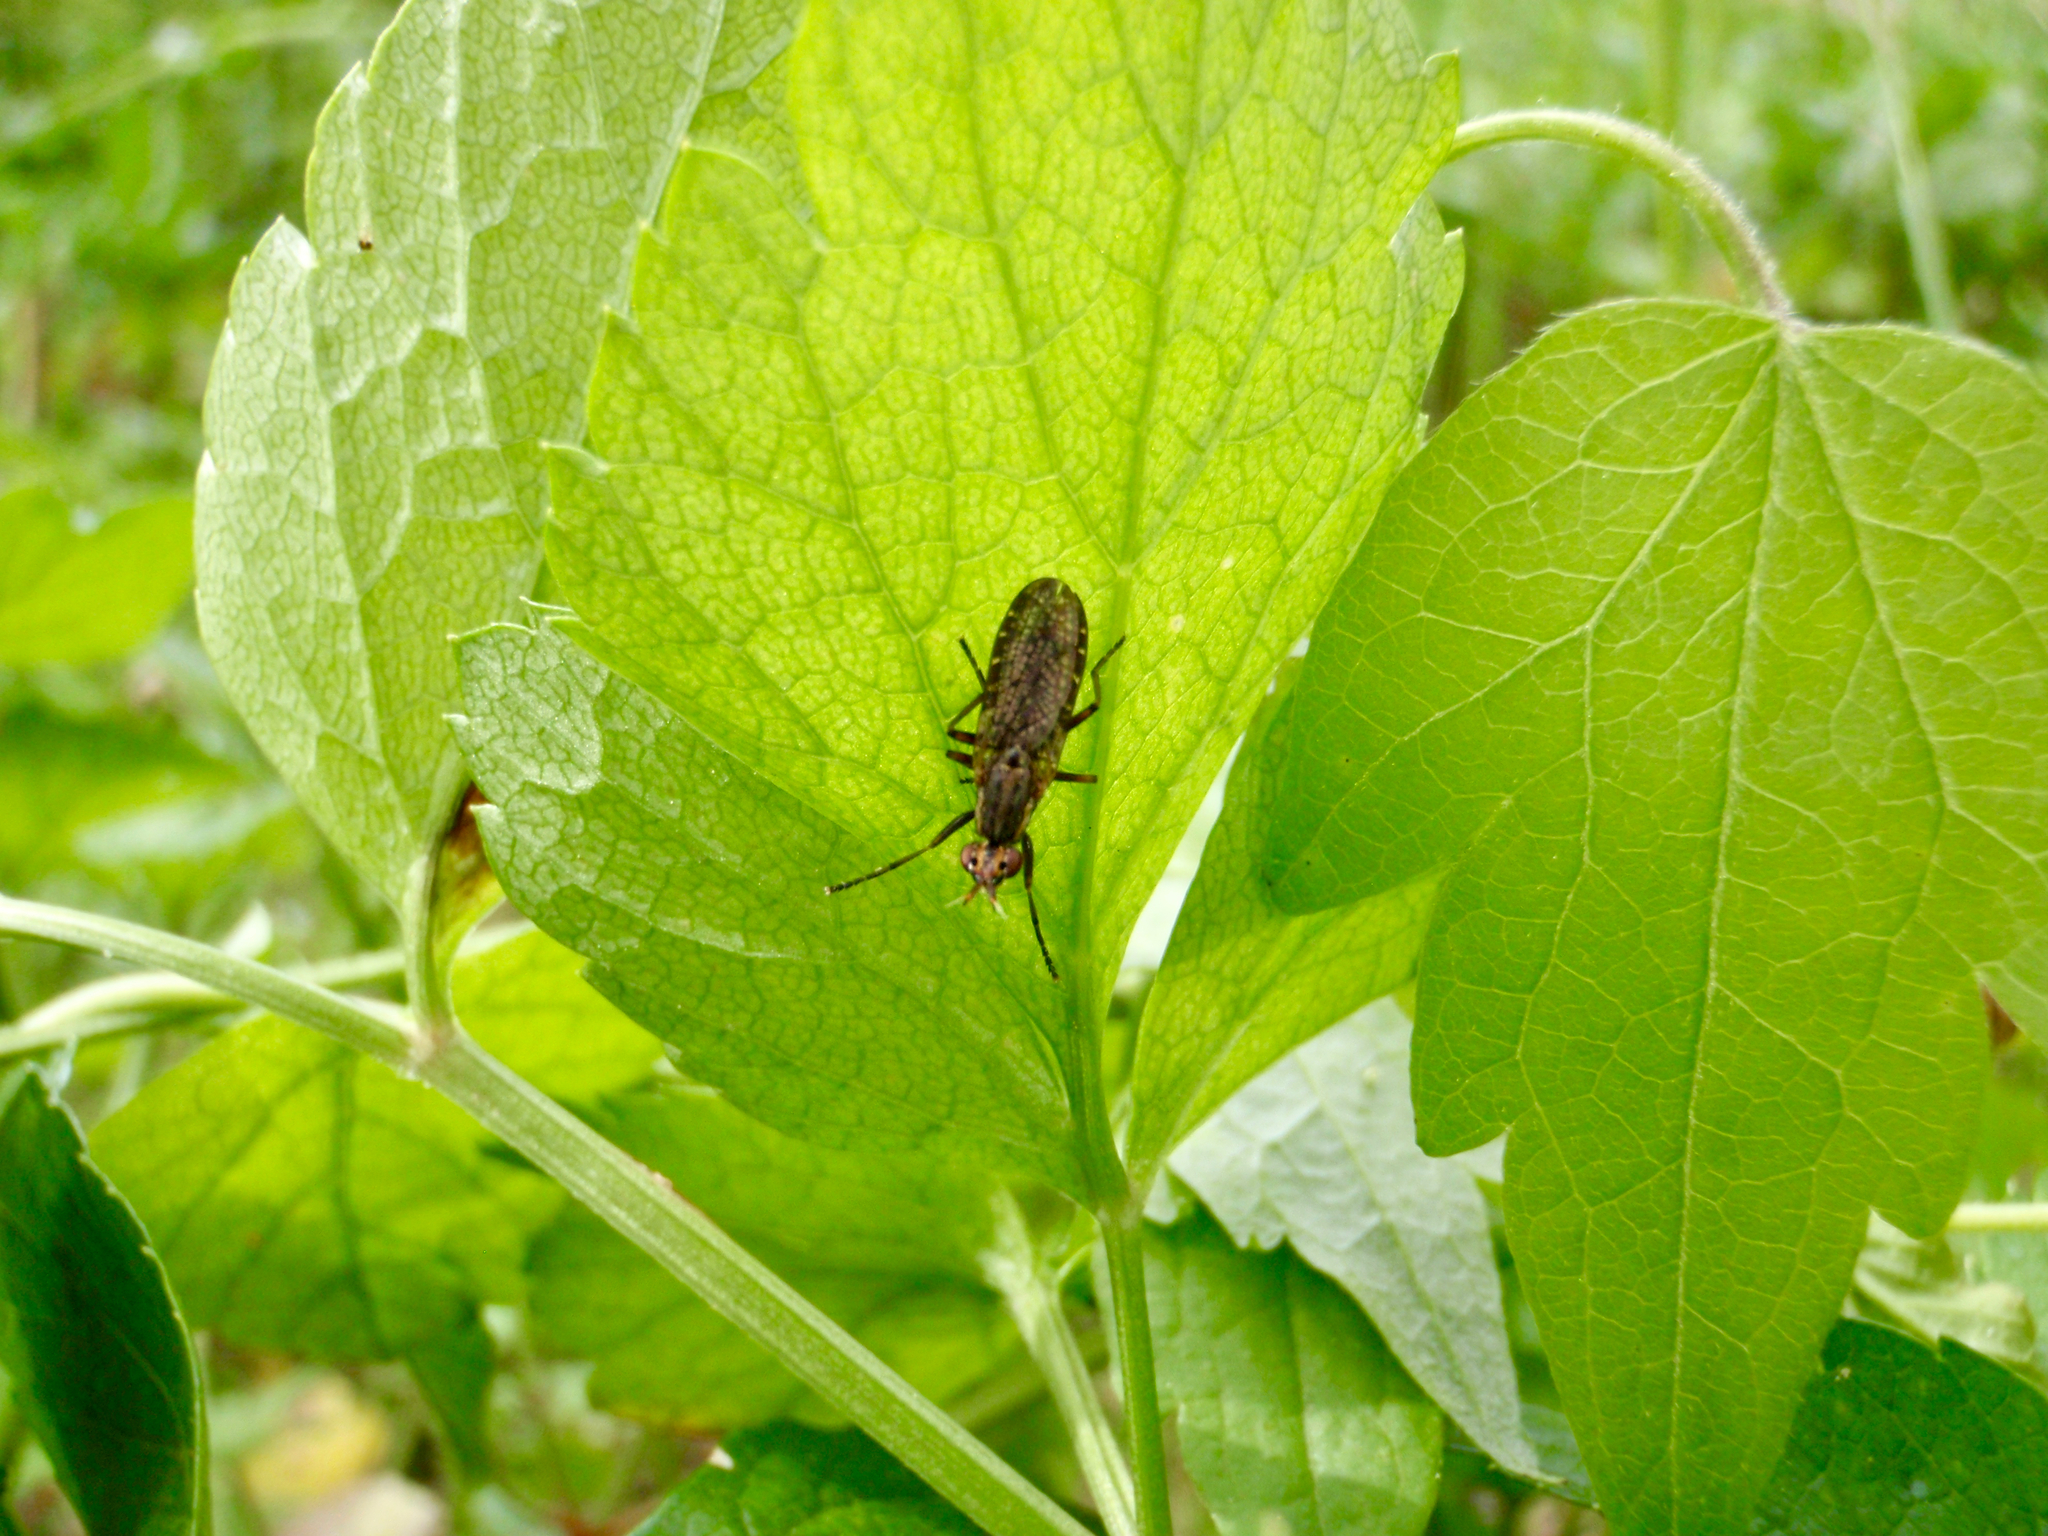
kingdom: Animalia
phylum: Arthropoda
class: Insecta
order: Diptera
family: Sciomyzidae
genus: Euthycera
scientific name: Euthycera
